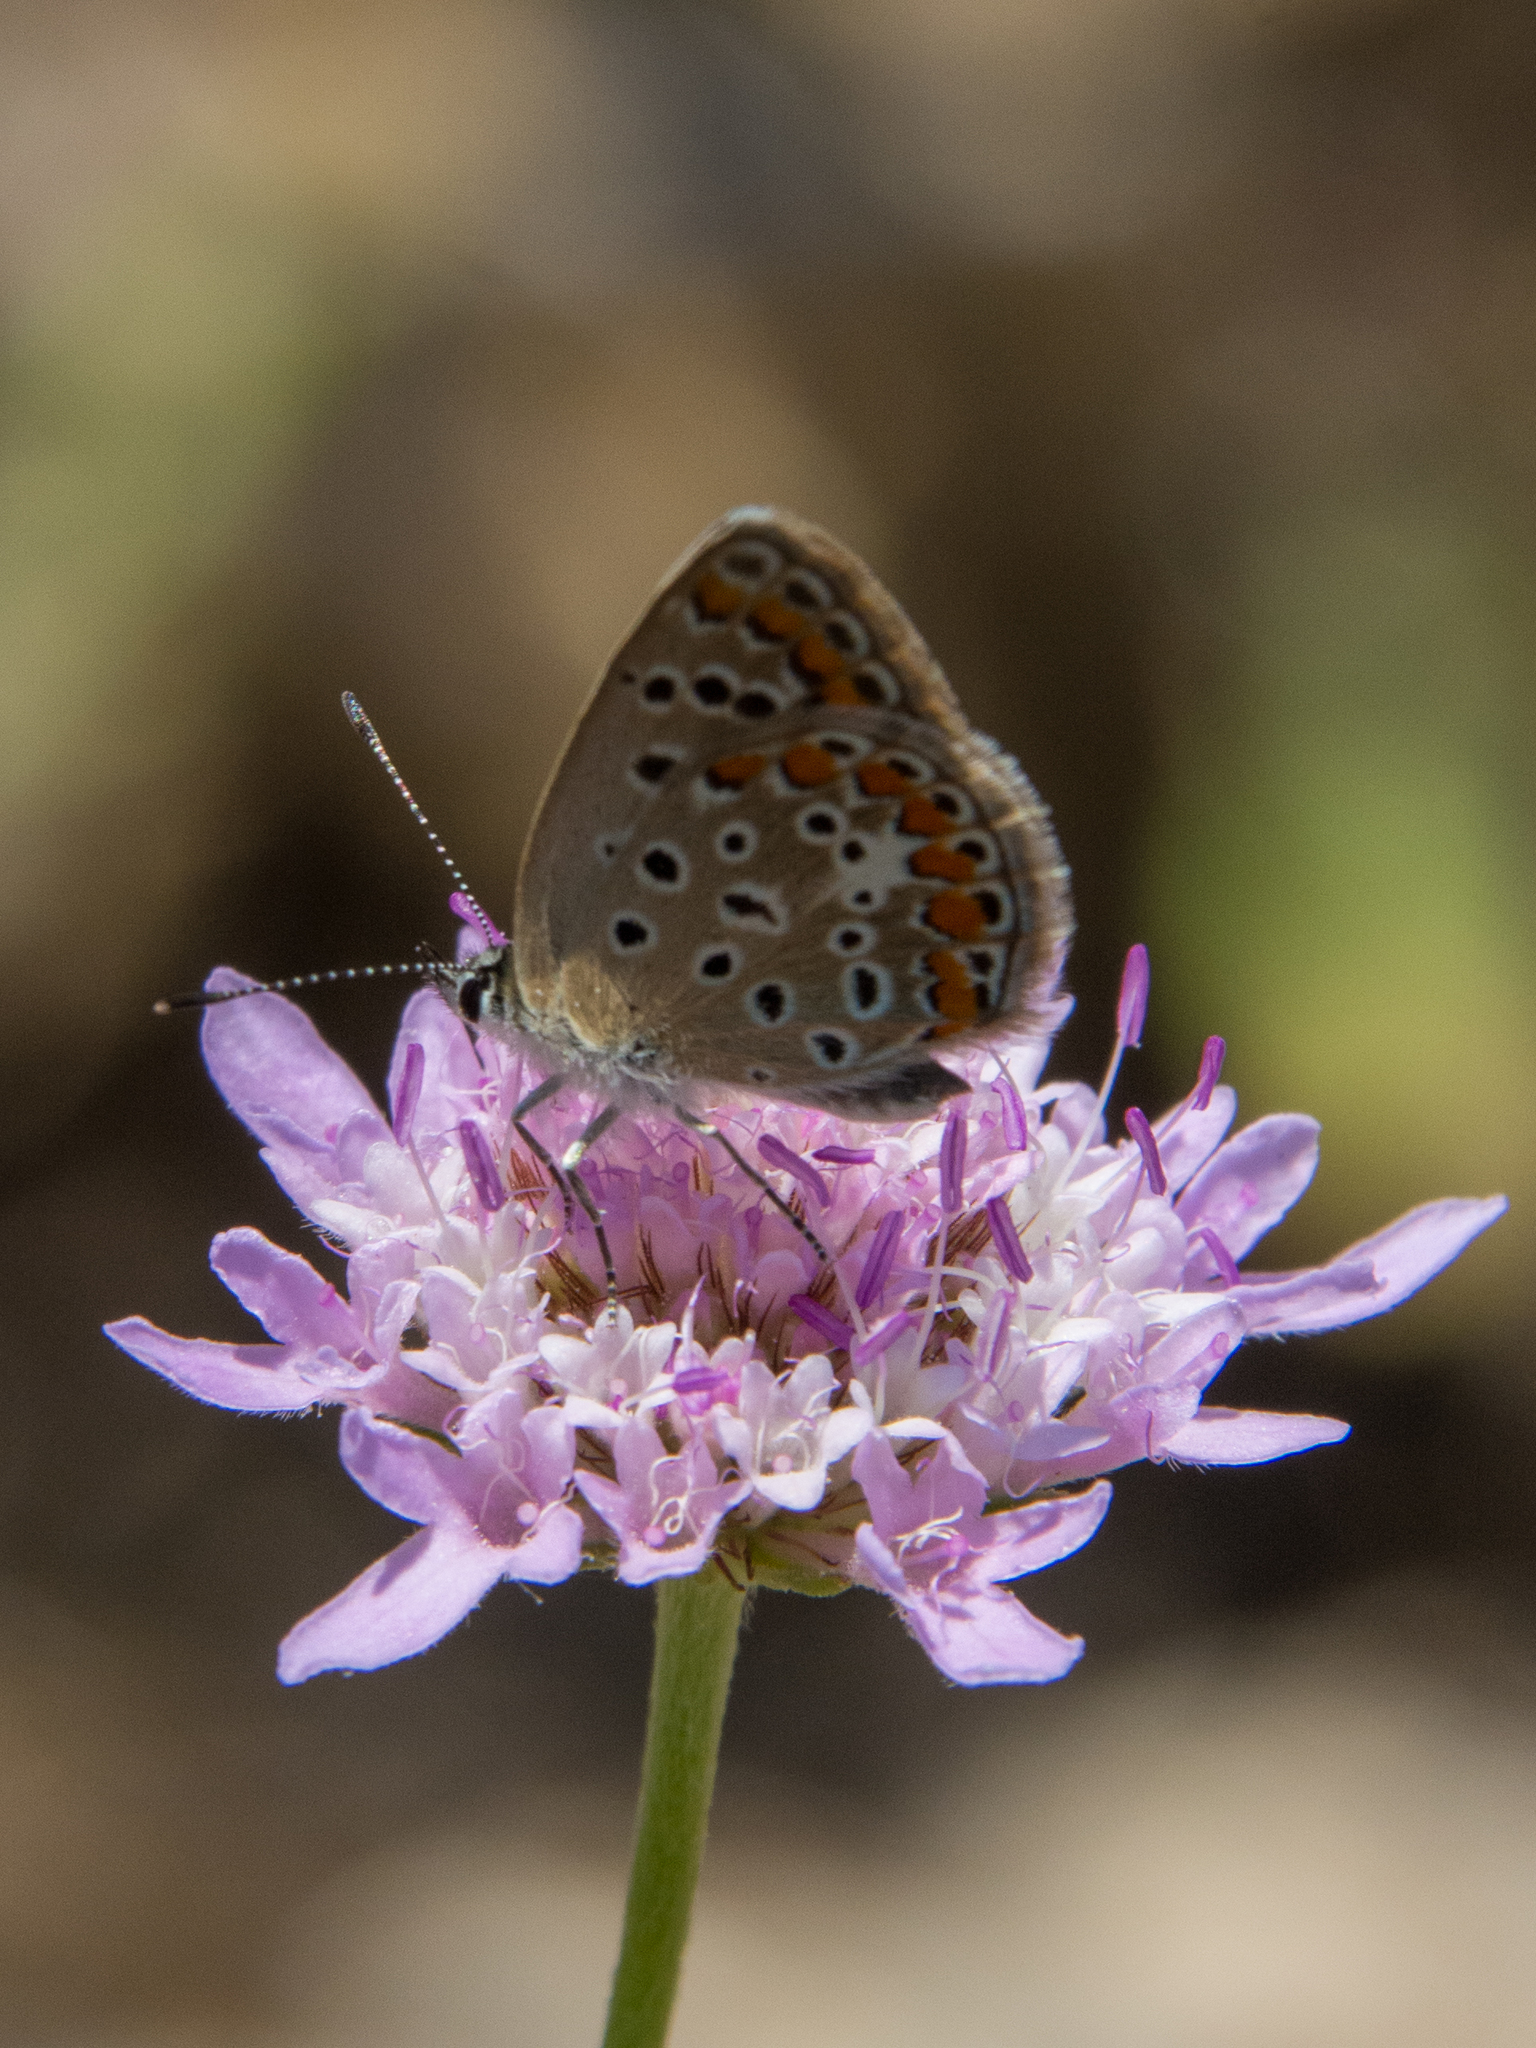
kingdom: Animalia
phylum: Arthropoda
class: Insecta
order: Lepidoptera
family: Lycaenidae
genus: Polyommatus
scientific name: Polyommatus celina
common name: Austaut's blue
